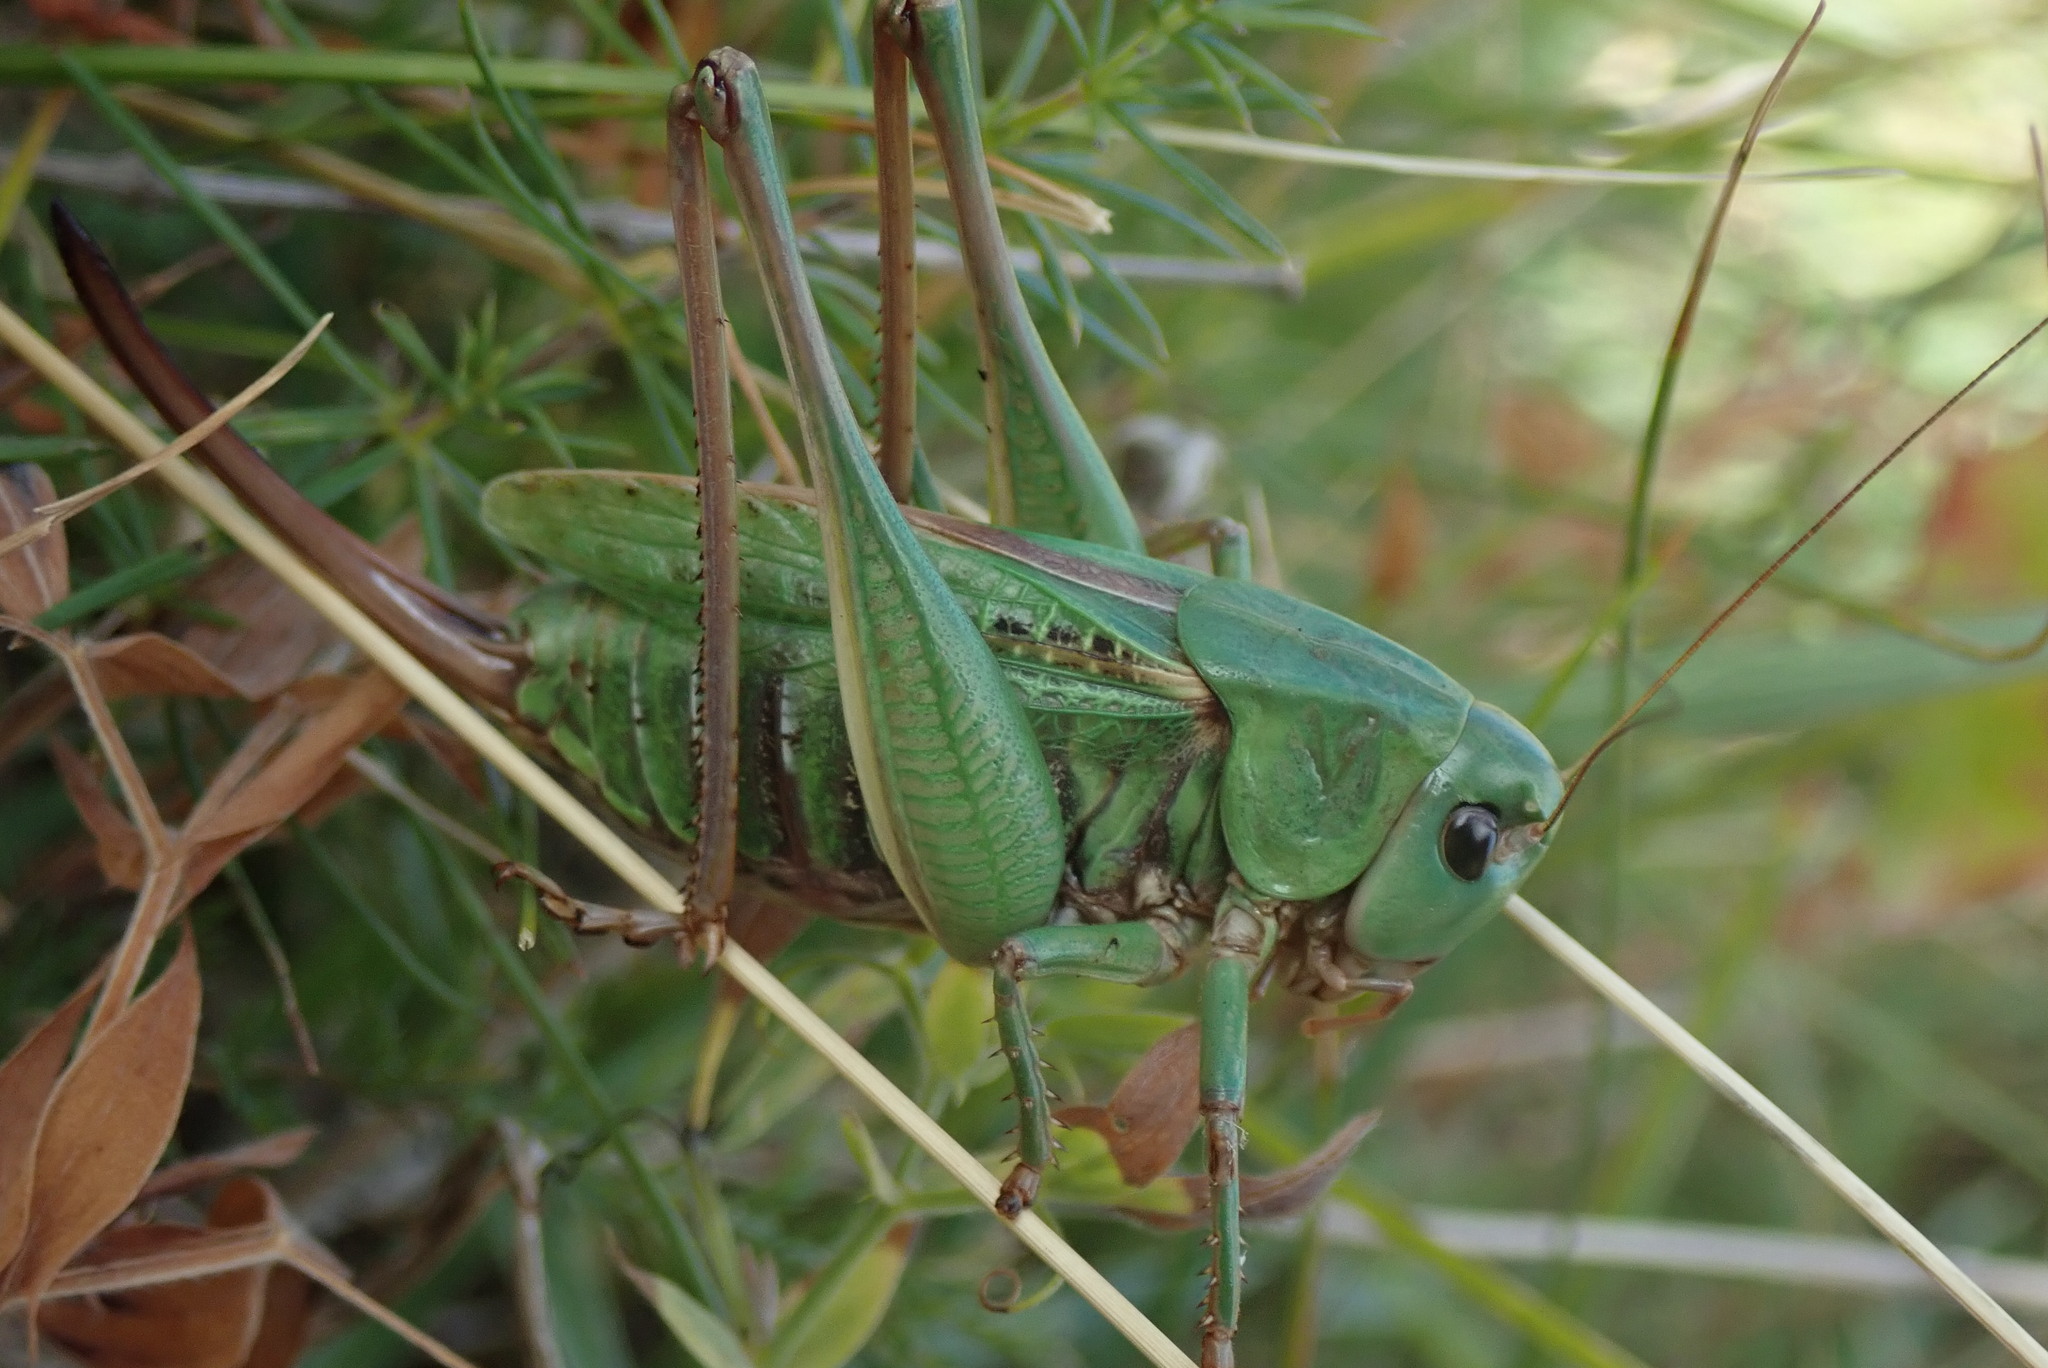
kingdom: Animalia
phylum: Arthropoda
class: Insecta
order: Orthoptera
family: Tettigoniidae
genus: Decticus
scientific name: Decticus verrucivorus
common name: Wart-biter
